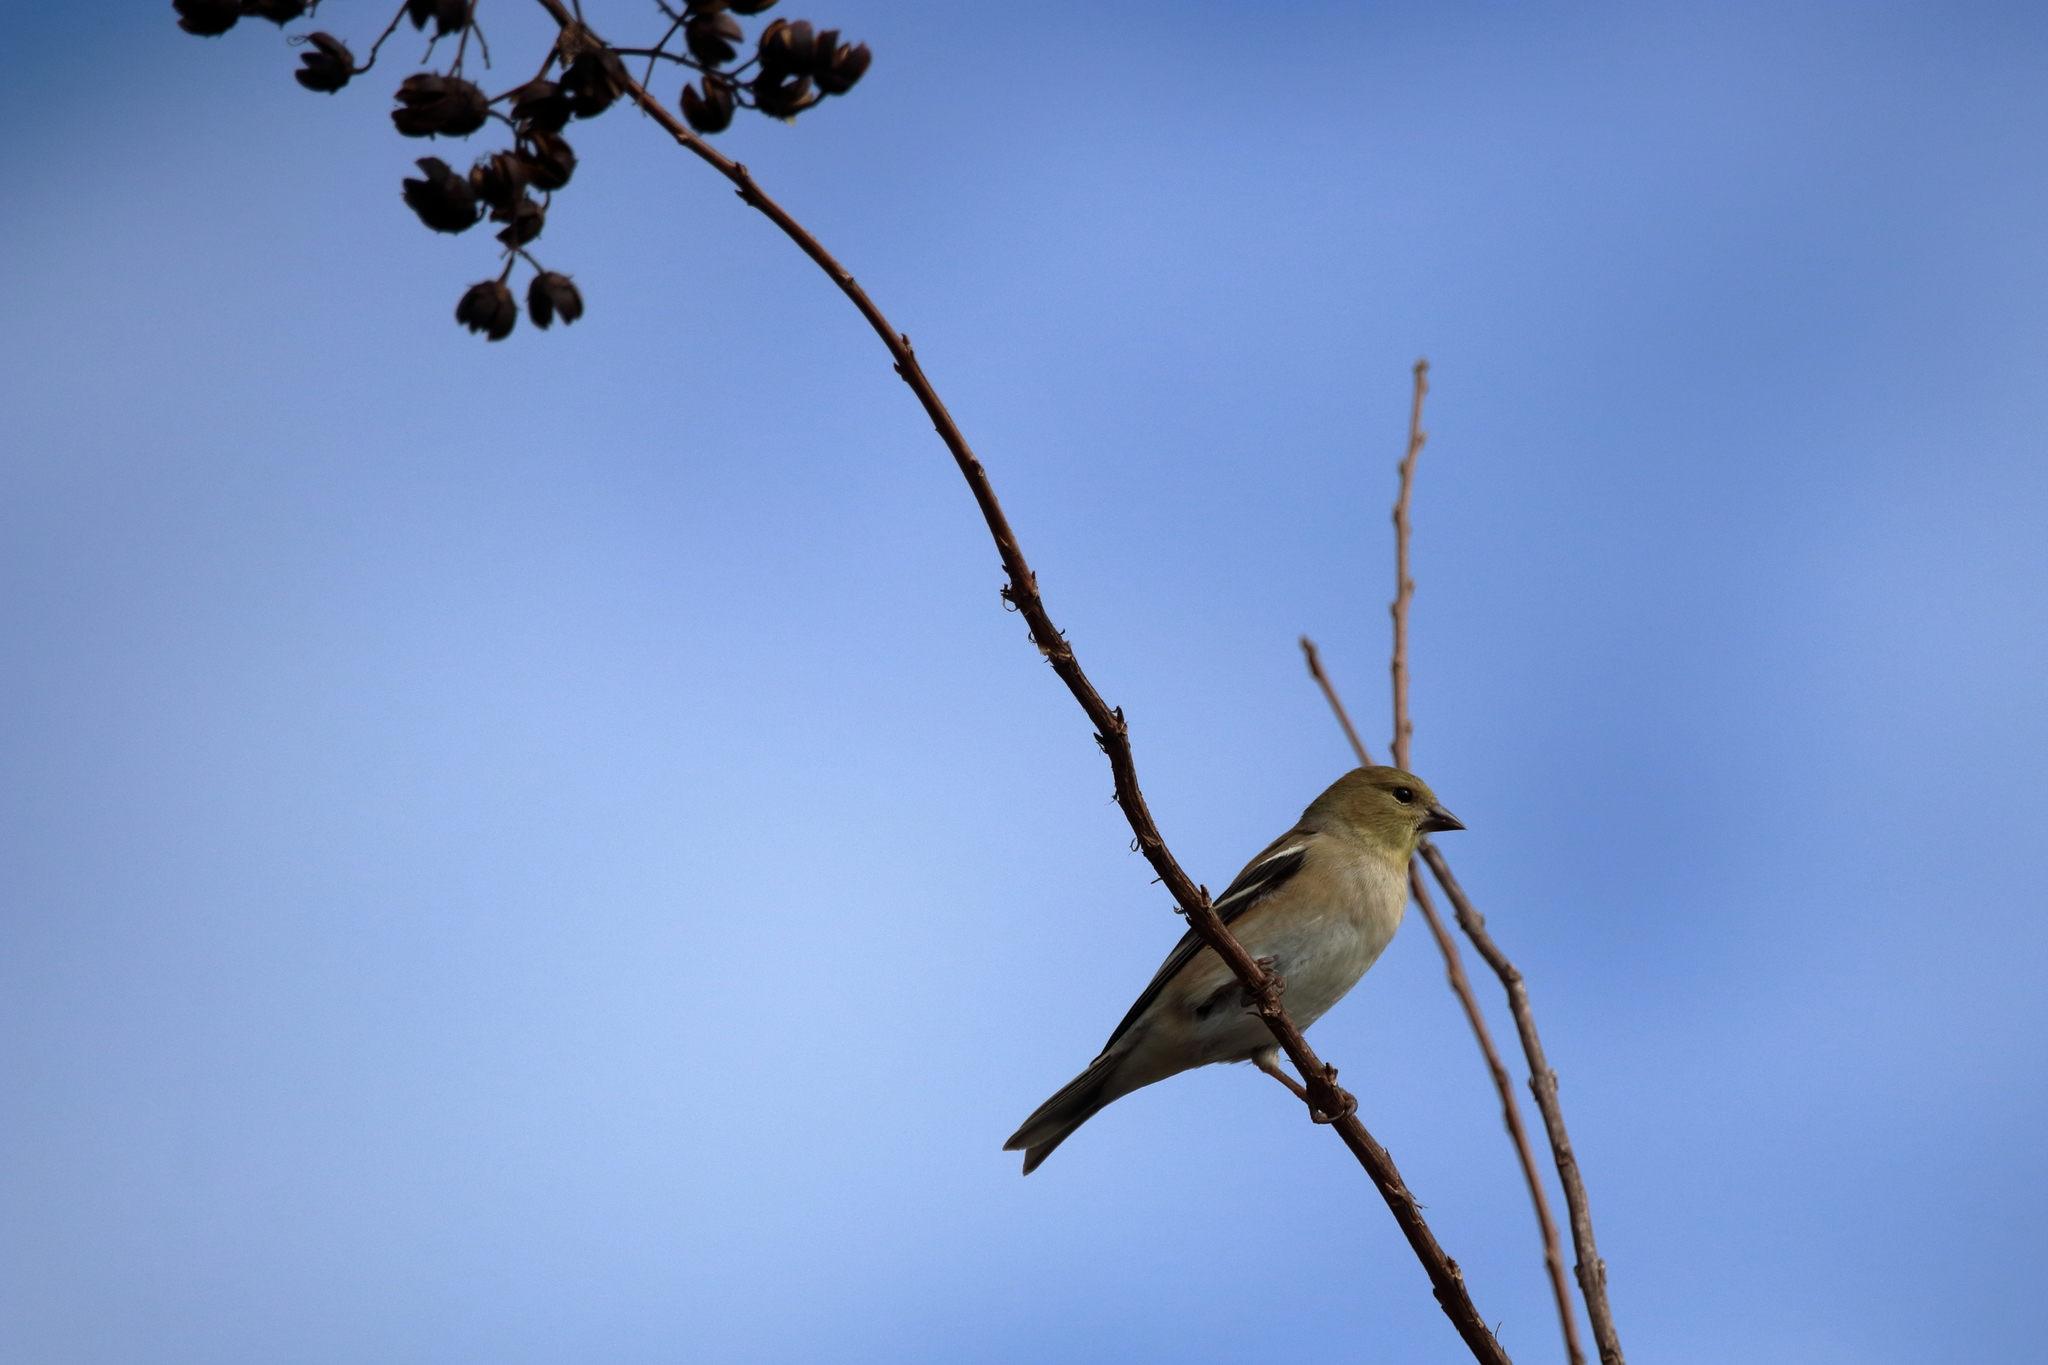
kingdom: Animalia
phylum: Chordata
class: Aves
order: Passeriformes
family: Fringillidae
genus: Spinus
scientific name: Spinus tristis
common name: American goldfinch
